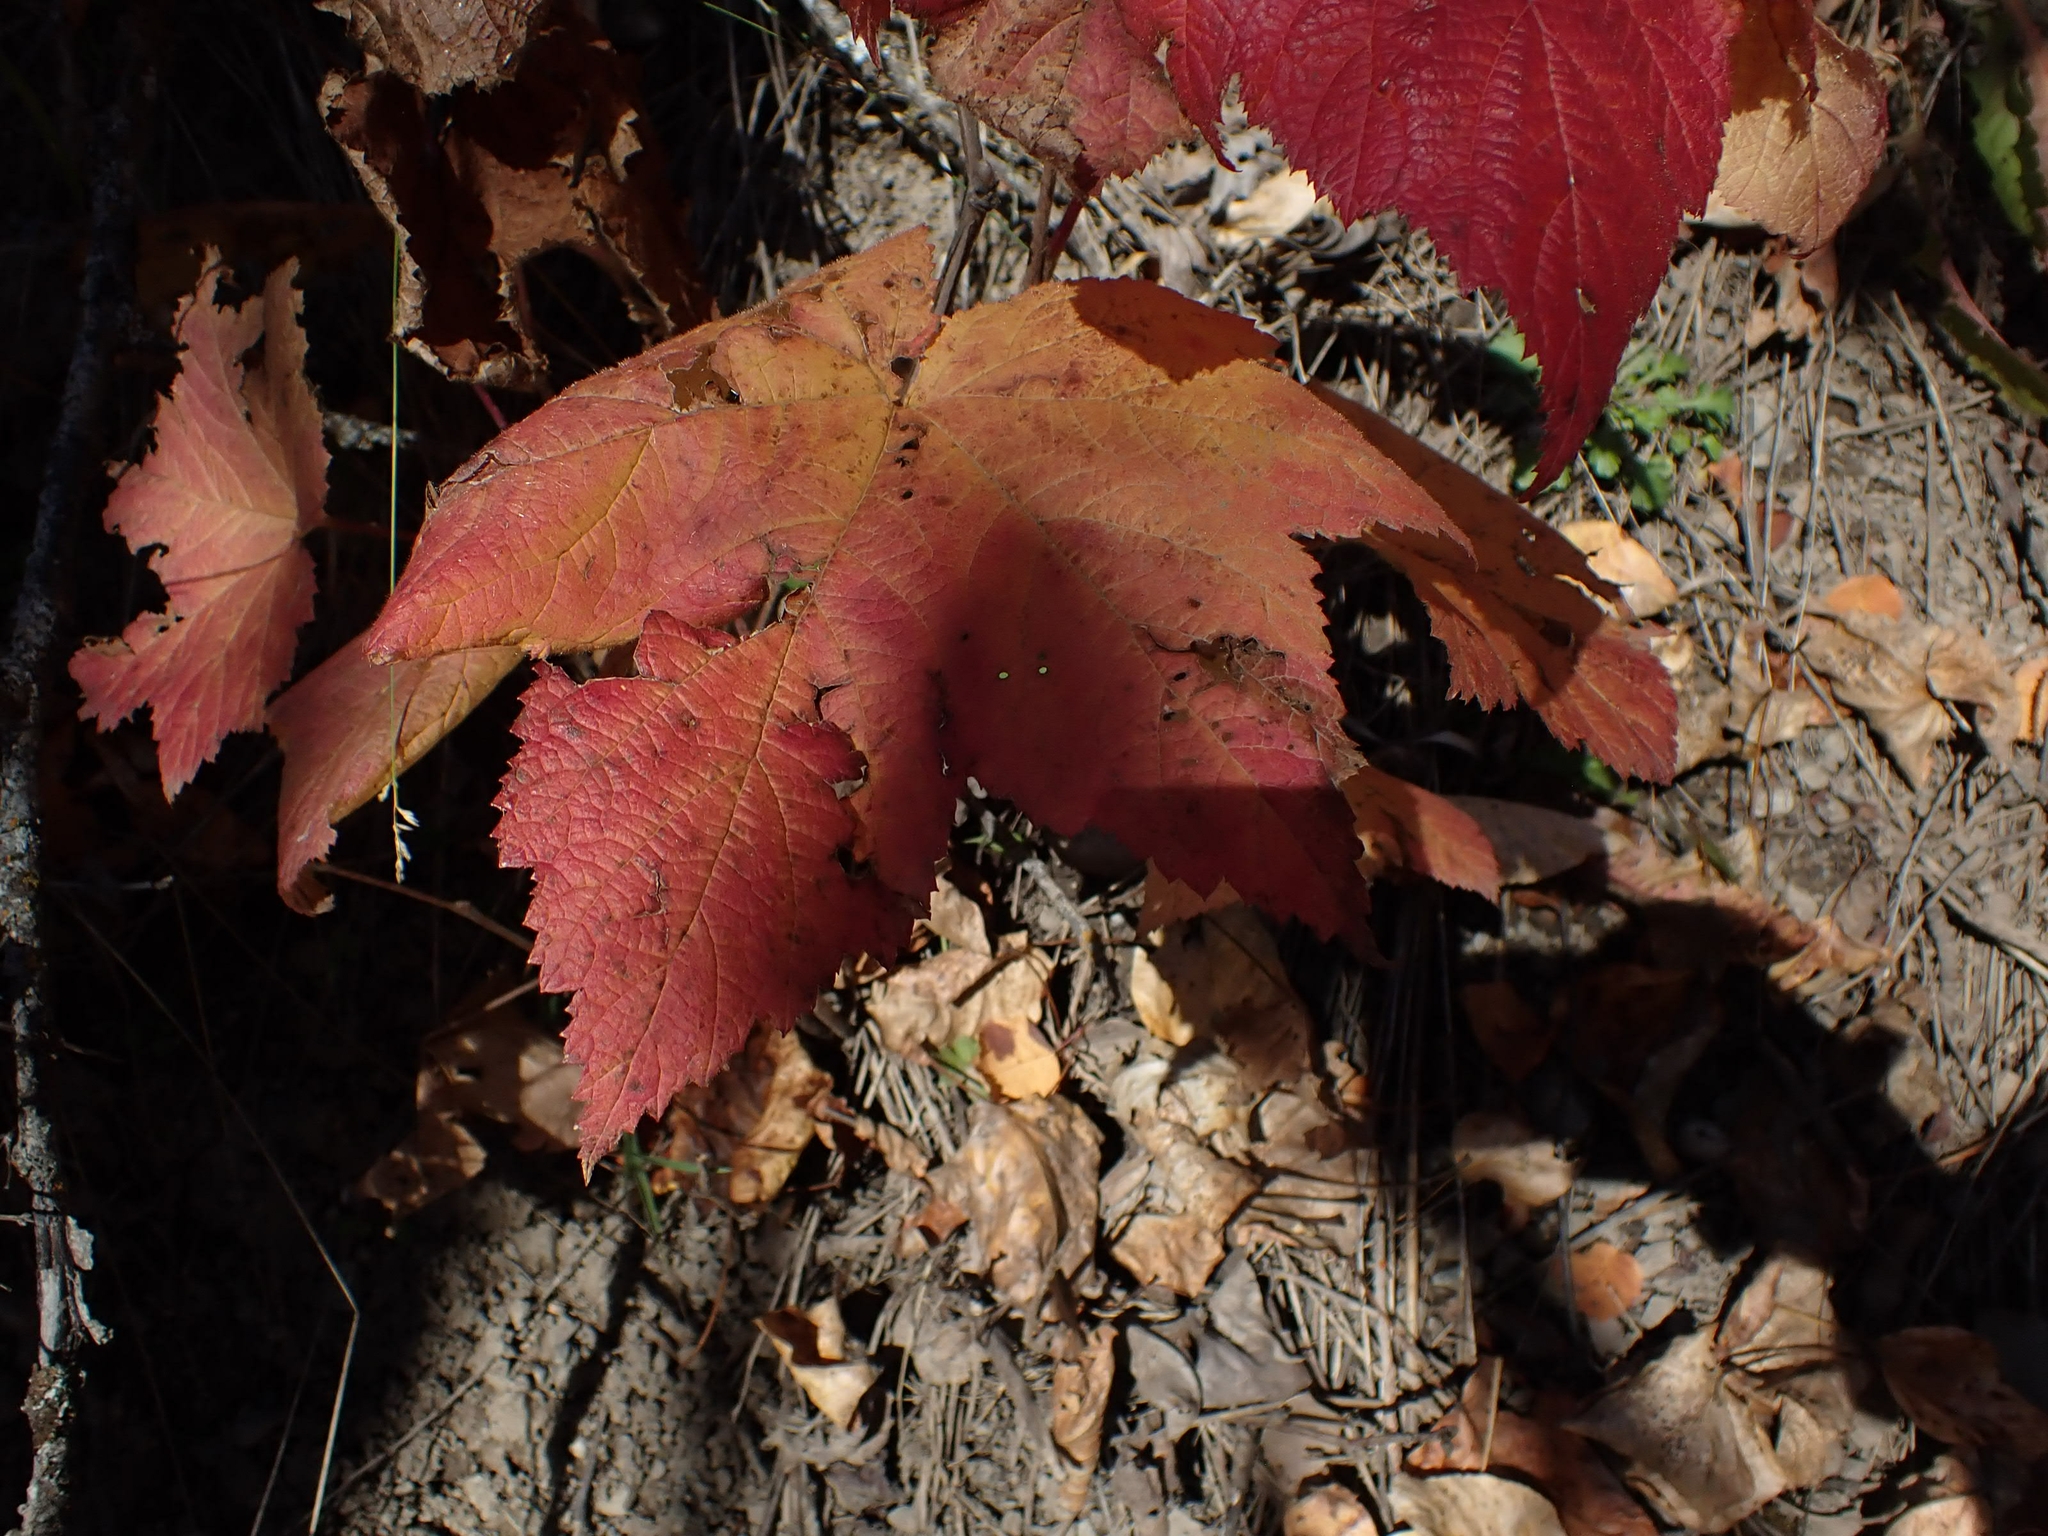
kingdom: Plantae
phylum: Tracheophyta
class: Magnoliopsida
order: Rosales
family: Rosaceae
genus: Rubus
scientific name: Rubus parviflorus
